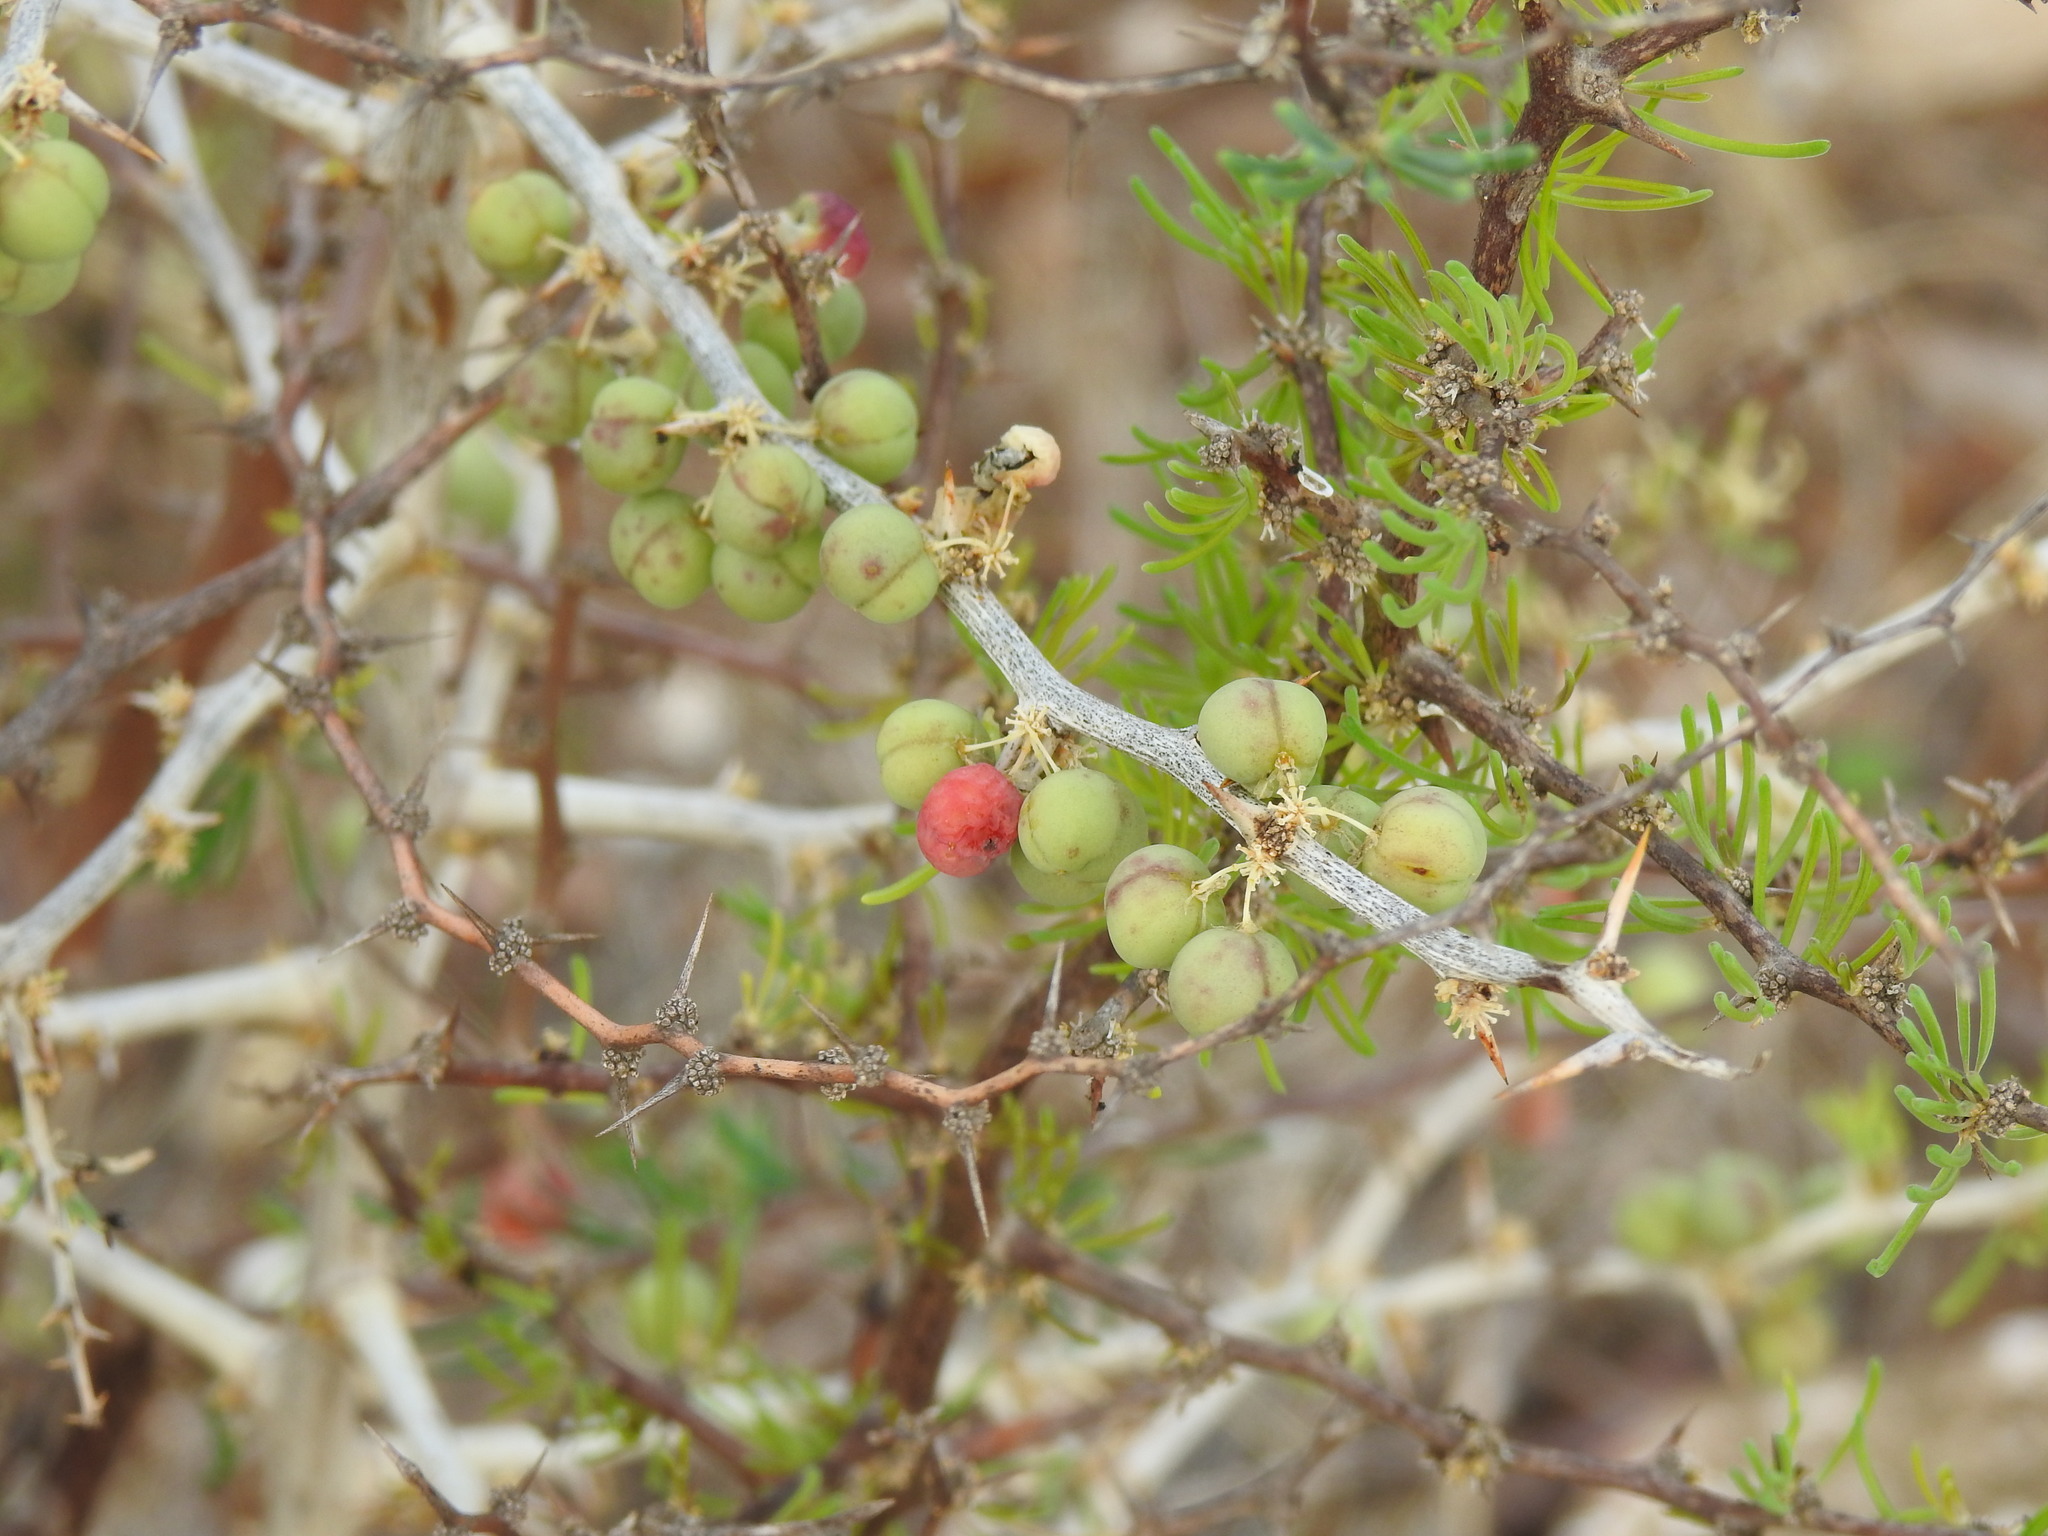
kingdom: Plantae
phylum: Tracheophyta
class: Liliopsida
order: Asparagales
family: Asparagaceae
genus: Asparagus
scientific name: Asparagus albus
